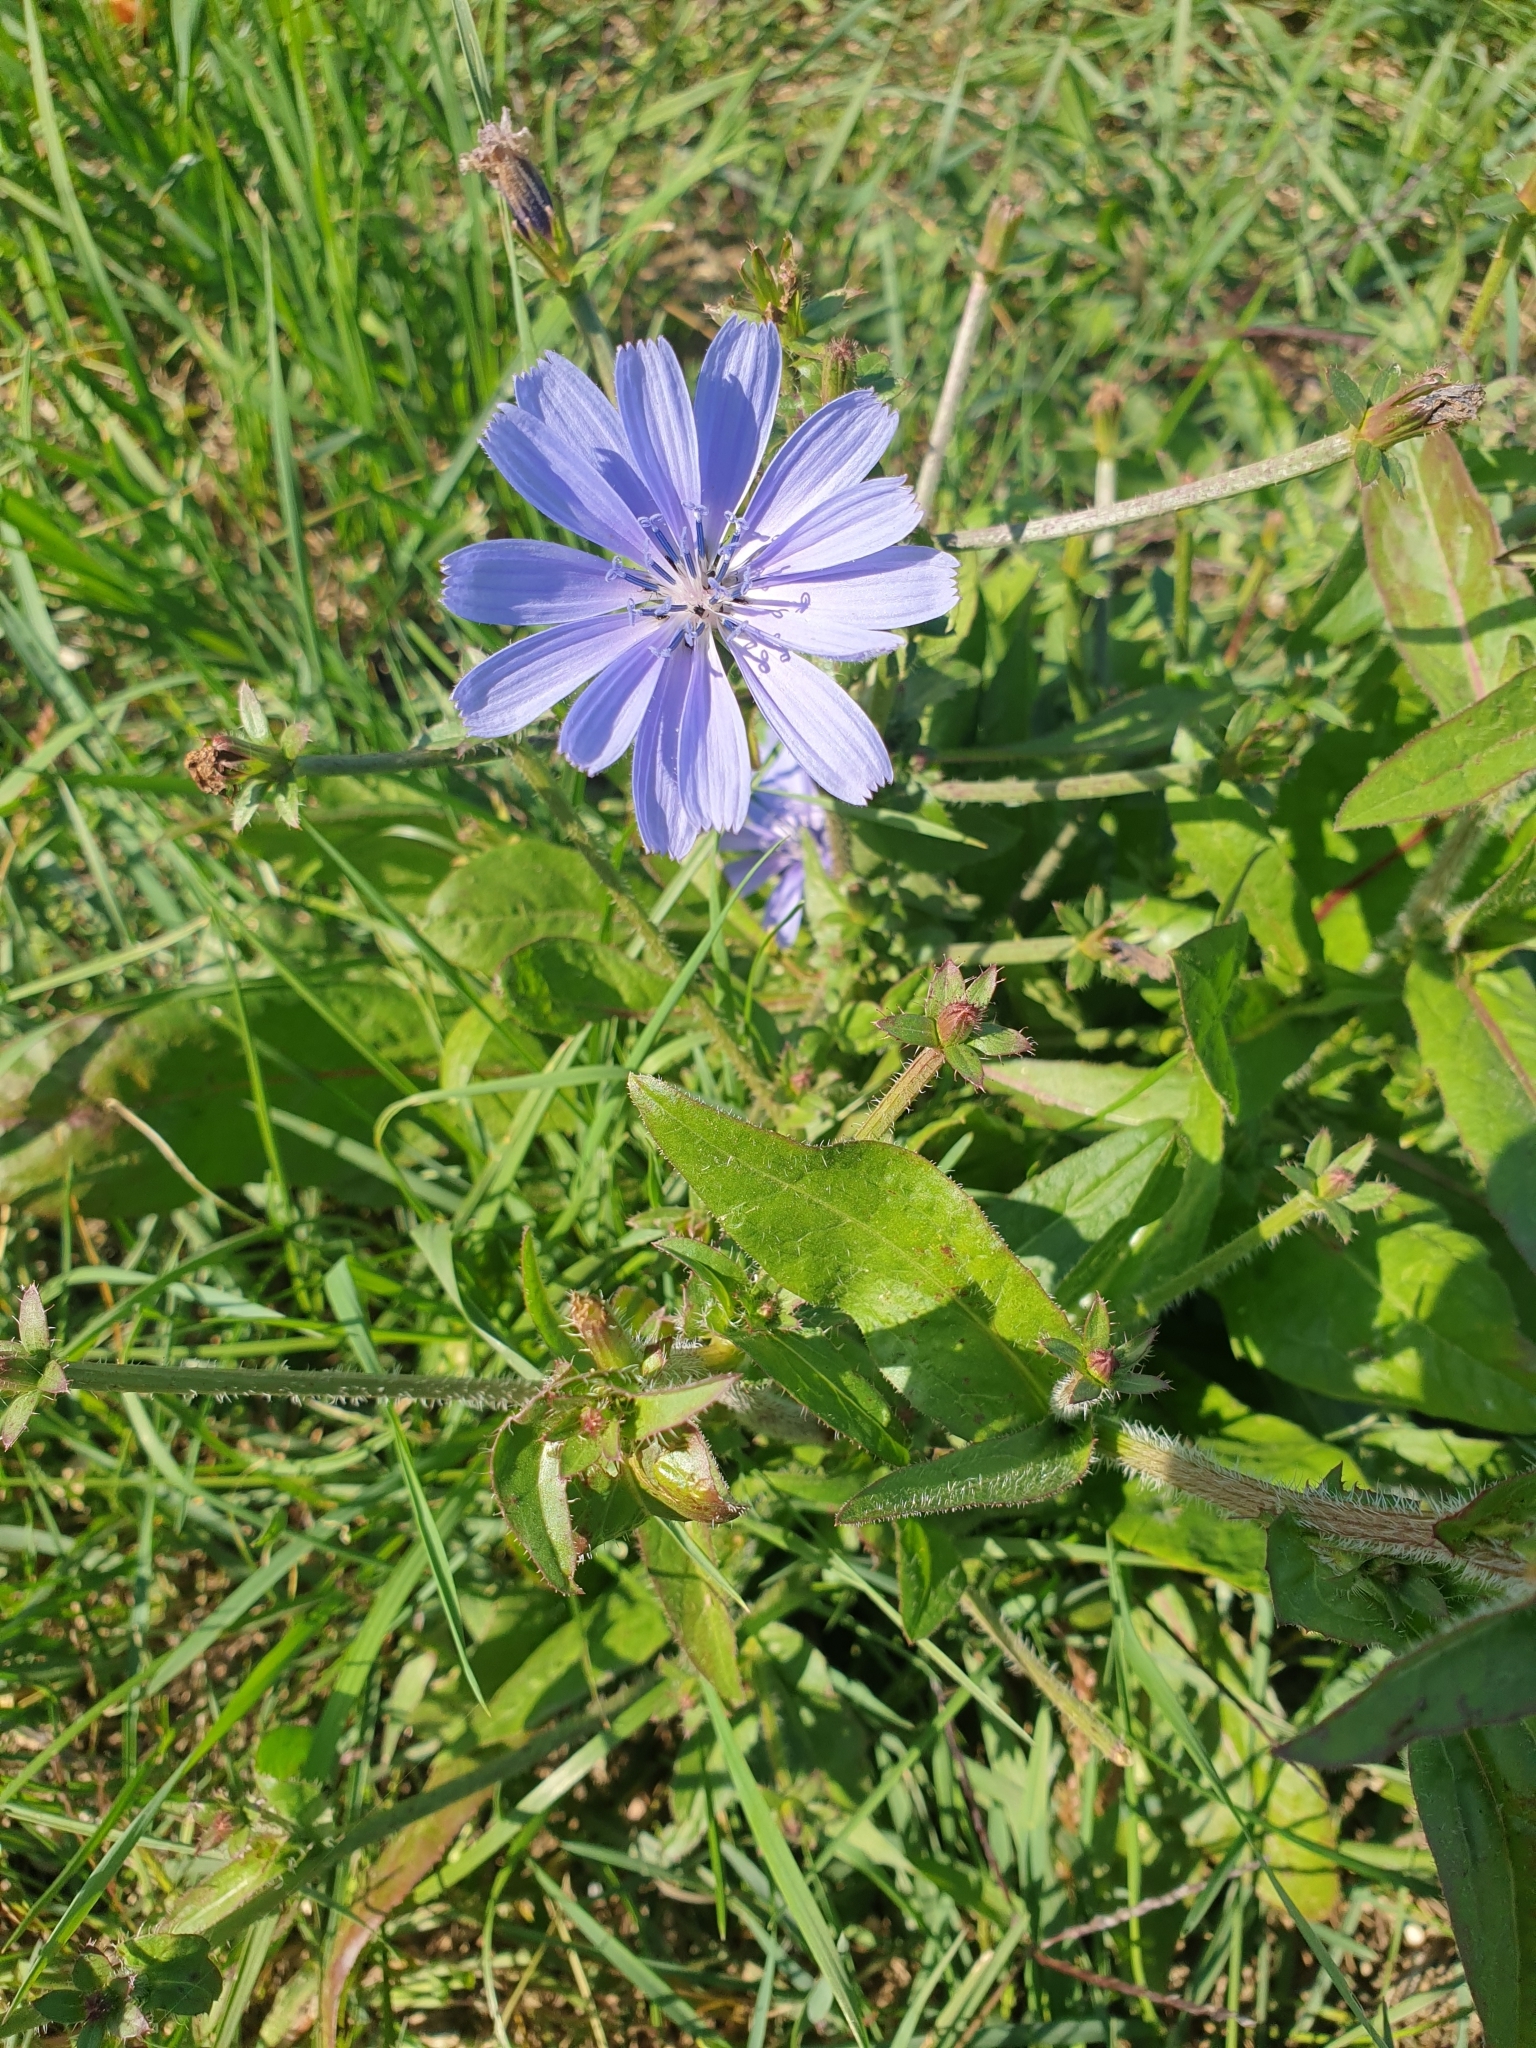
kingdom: Plantae
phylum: Tracheophyta
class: Magnoliopsida
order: Asterales
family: Asteraceae
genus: Cichorium
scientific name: Cichorium intybus
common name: Chicory
